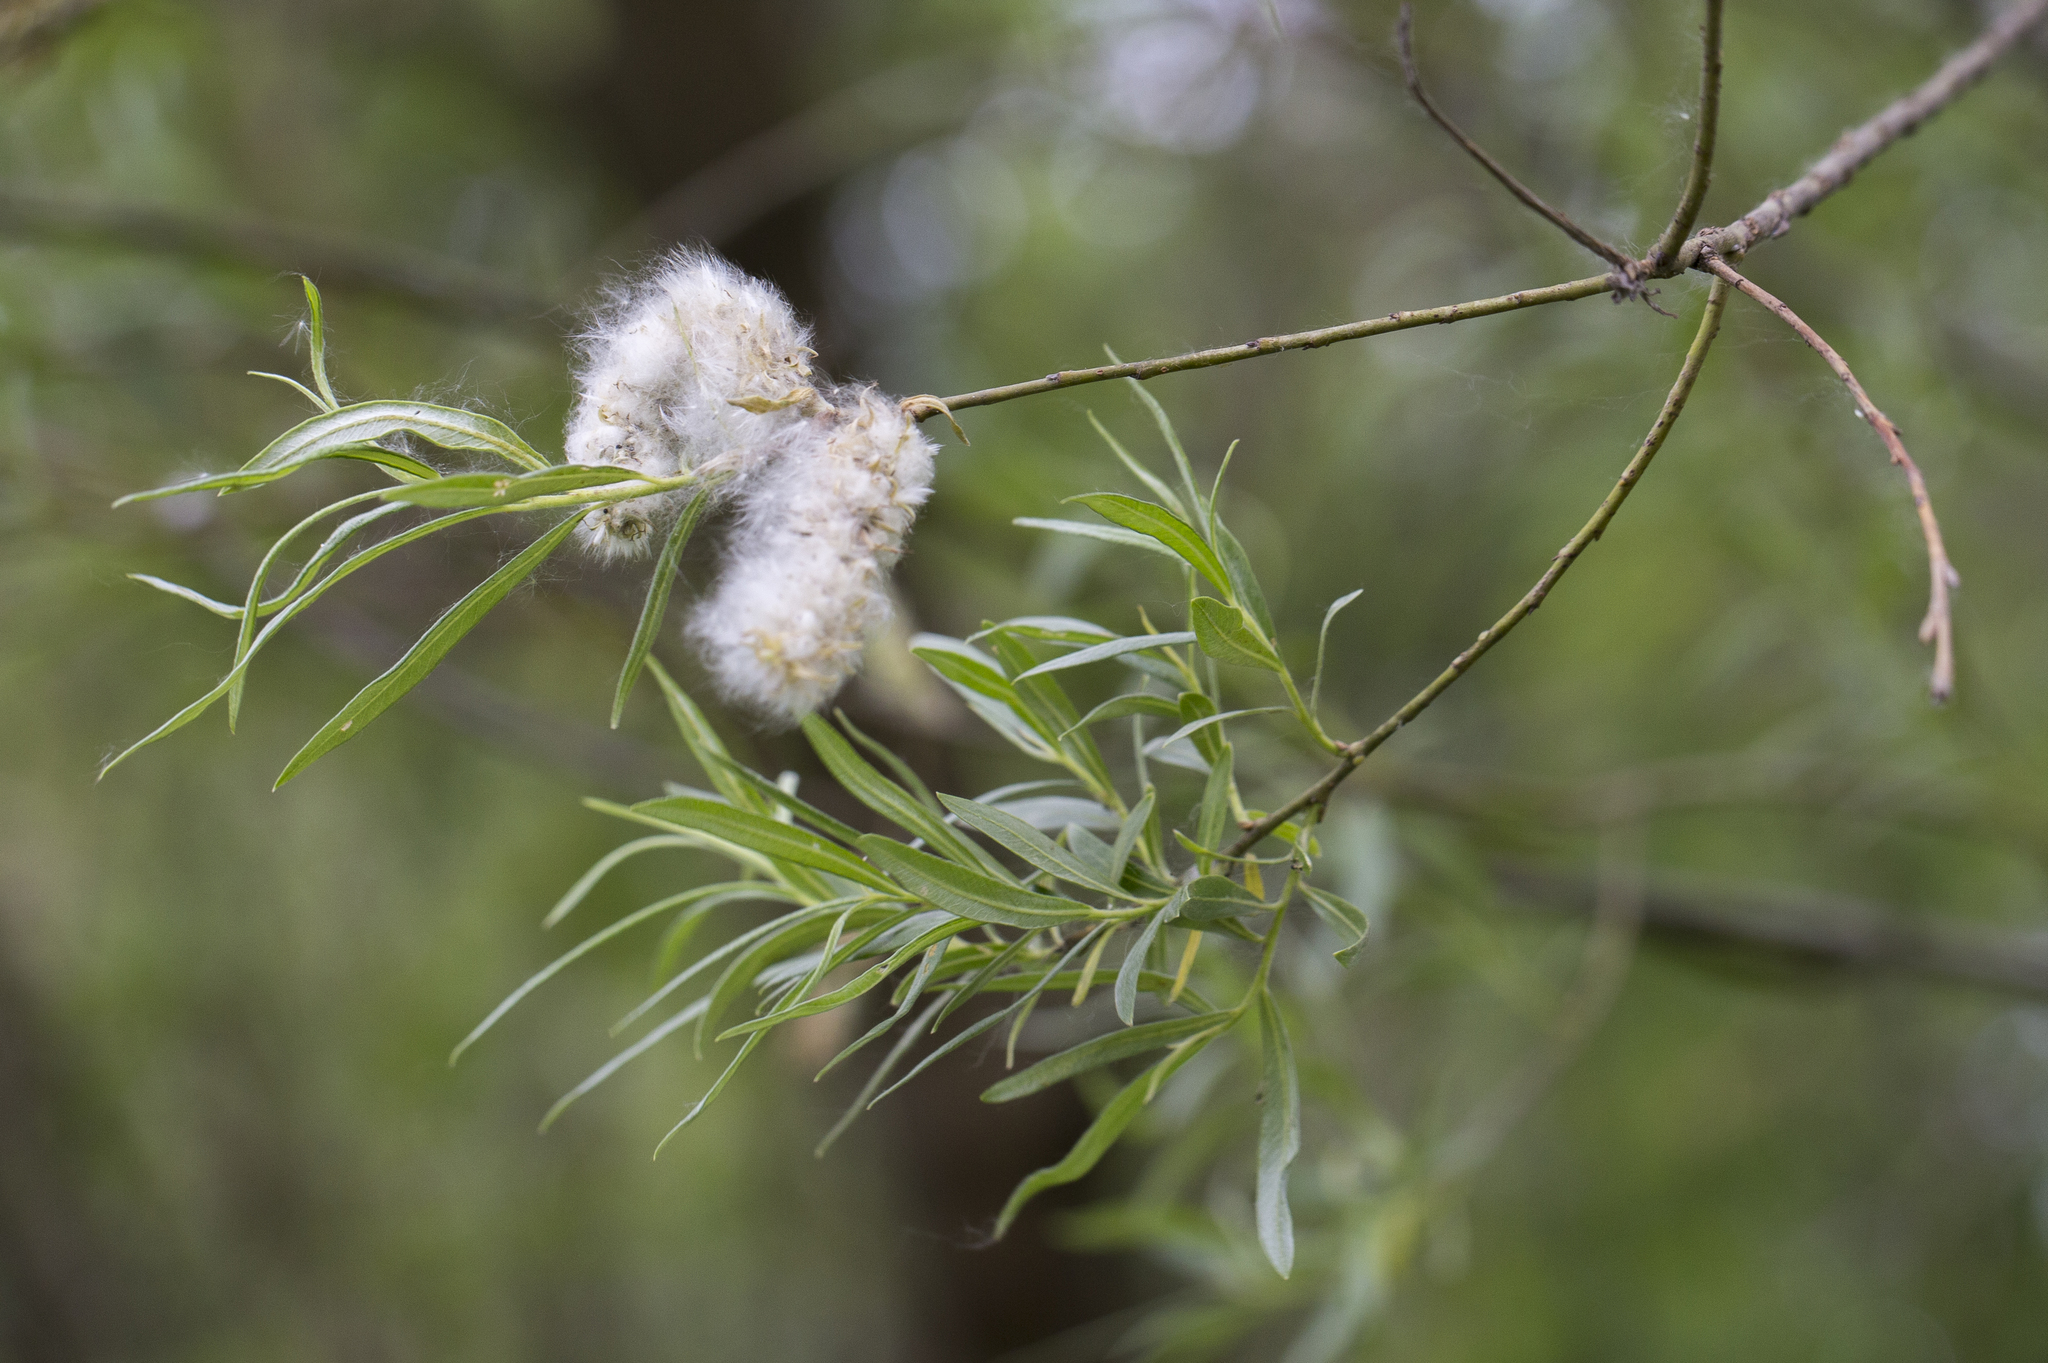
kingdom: Plantae
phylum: Tracheophyta
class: Magnoliopsida
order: Malpighiales
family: Salicaceae
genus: Salix
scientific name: Salix viminalis
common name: Osier
